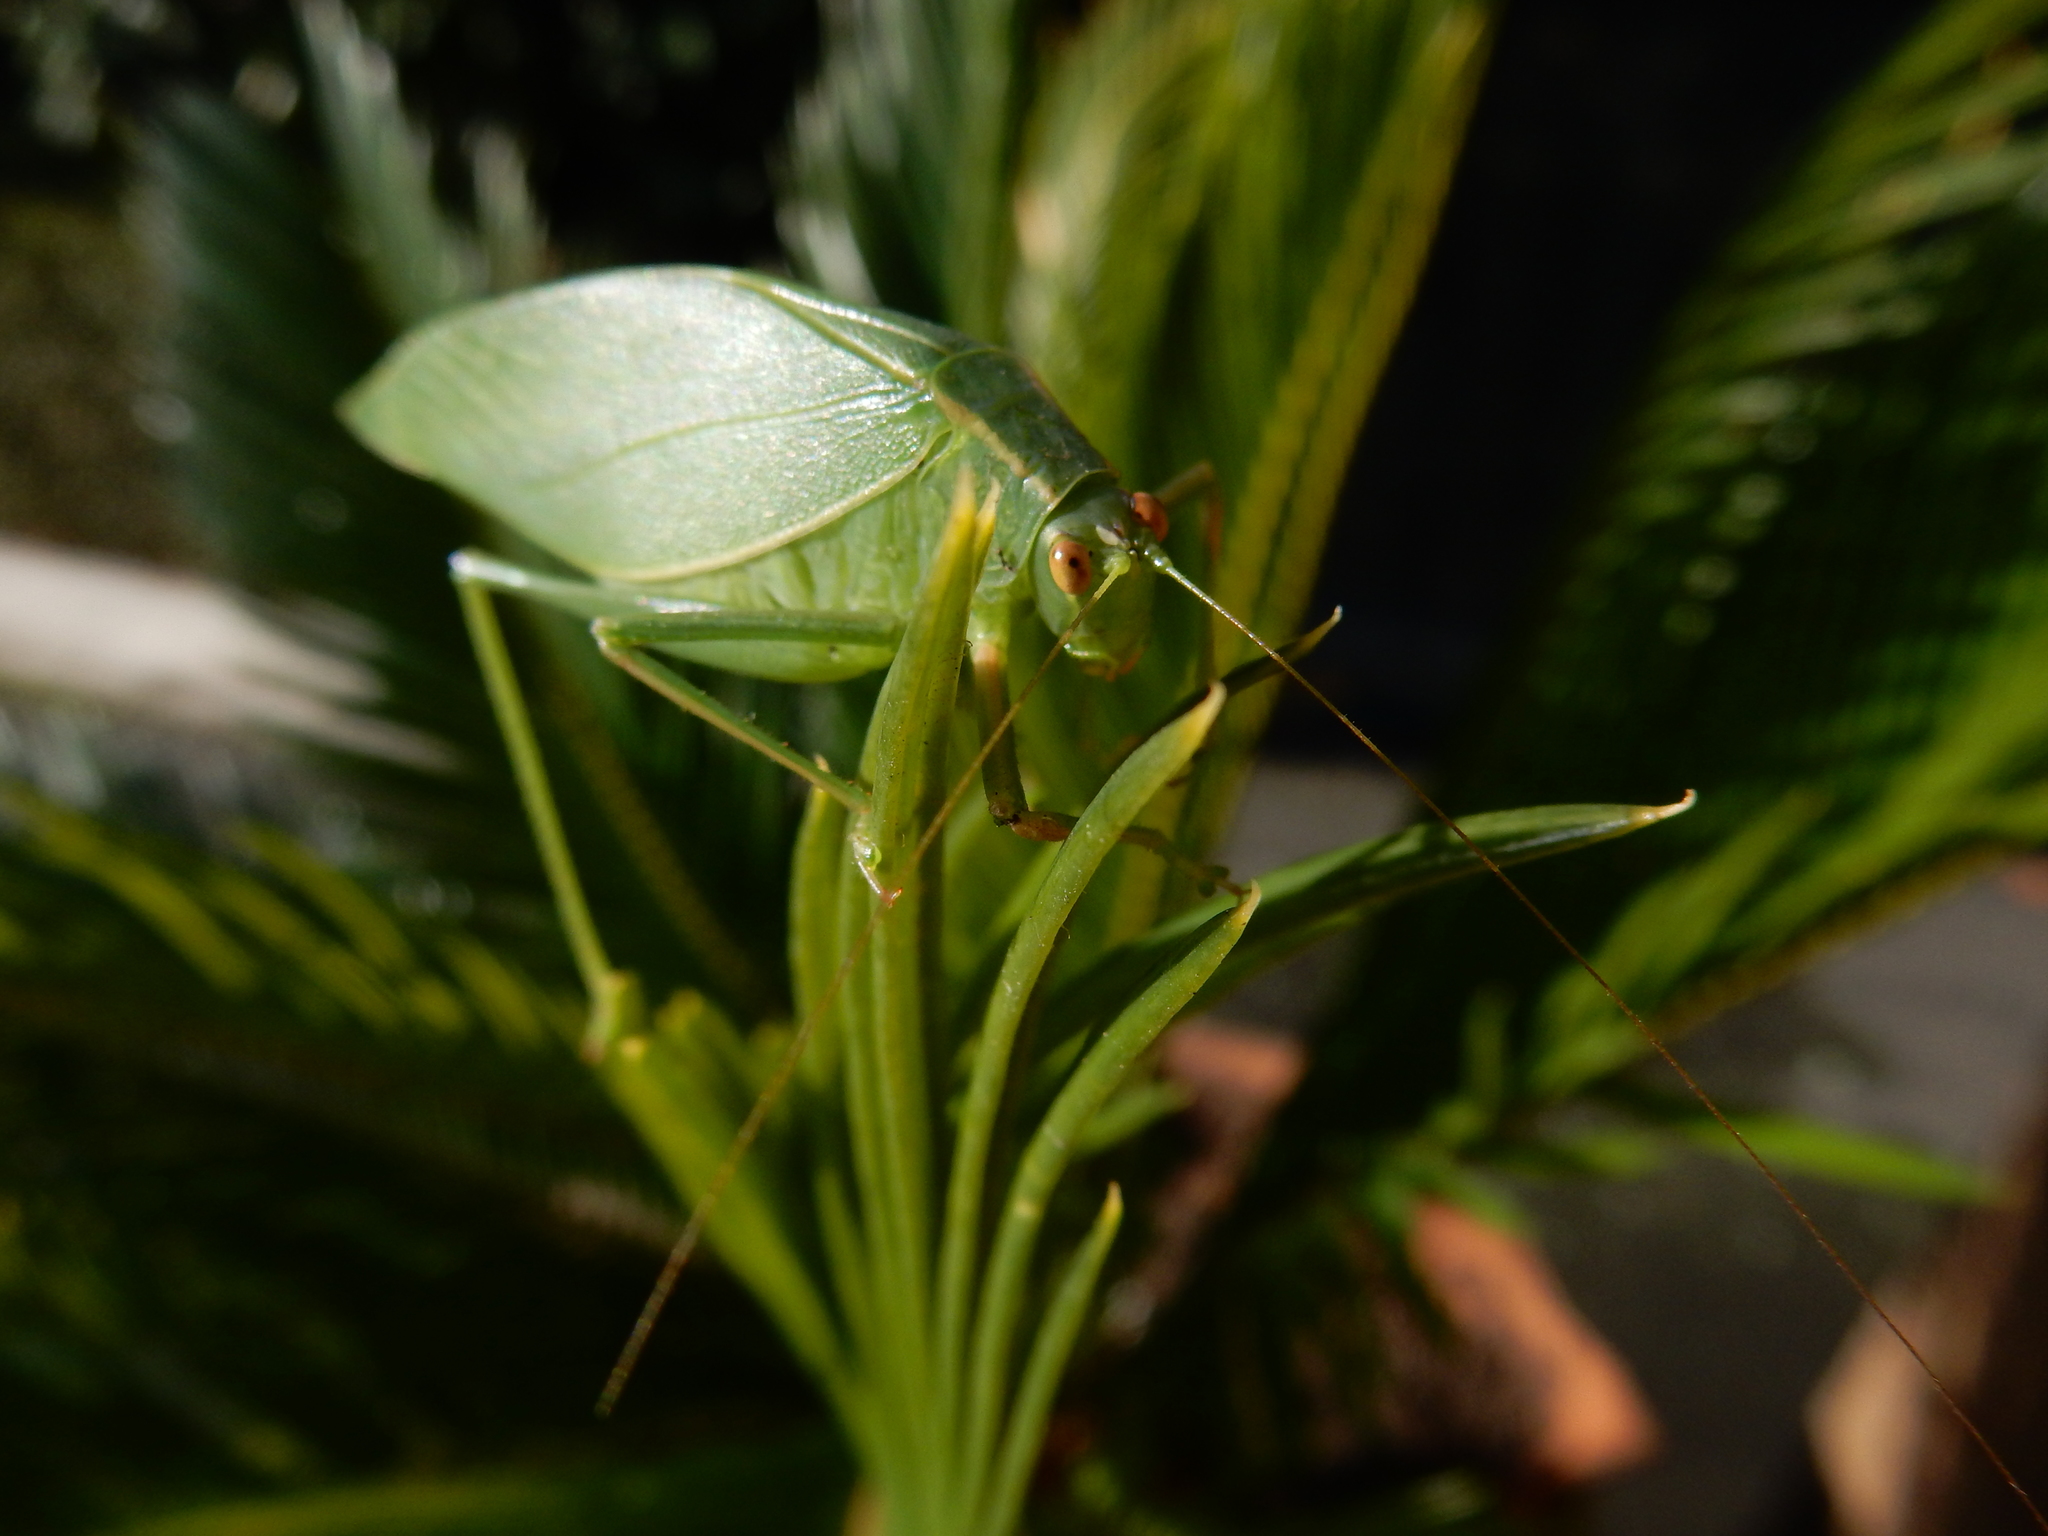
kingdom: Animalia
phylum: Arthropoda
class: Insecta
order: Orthoptera
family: Tettigoniidae
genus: Caedicia
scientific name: Caedicia simplex
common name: Common garden katydid
